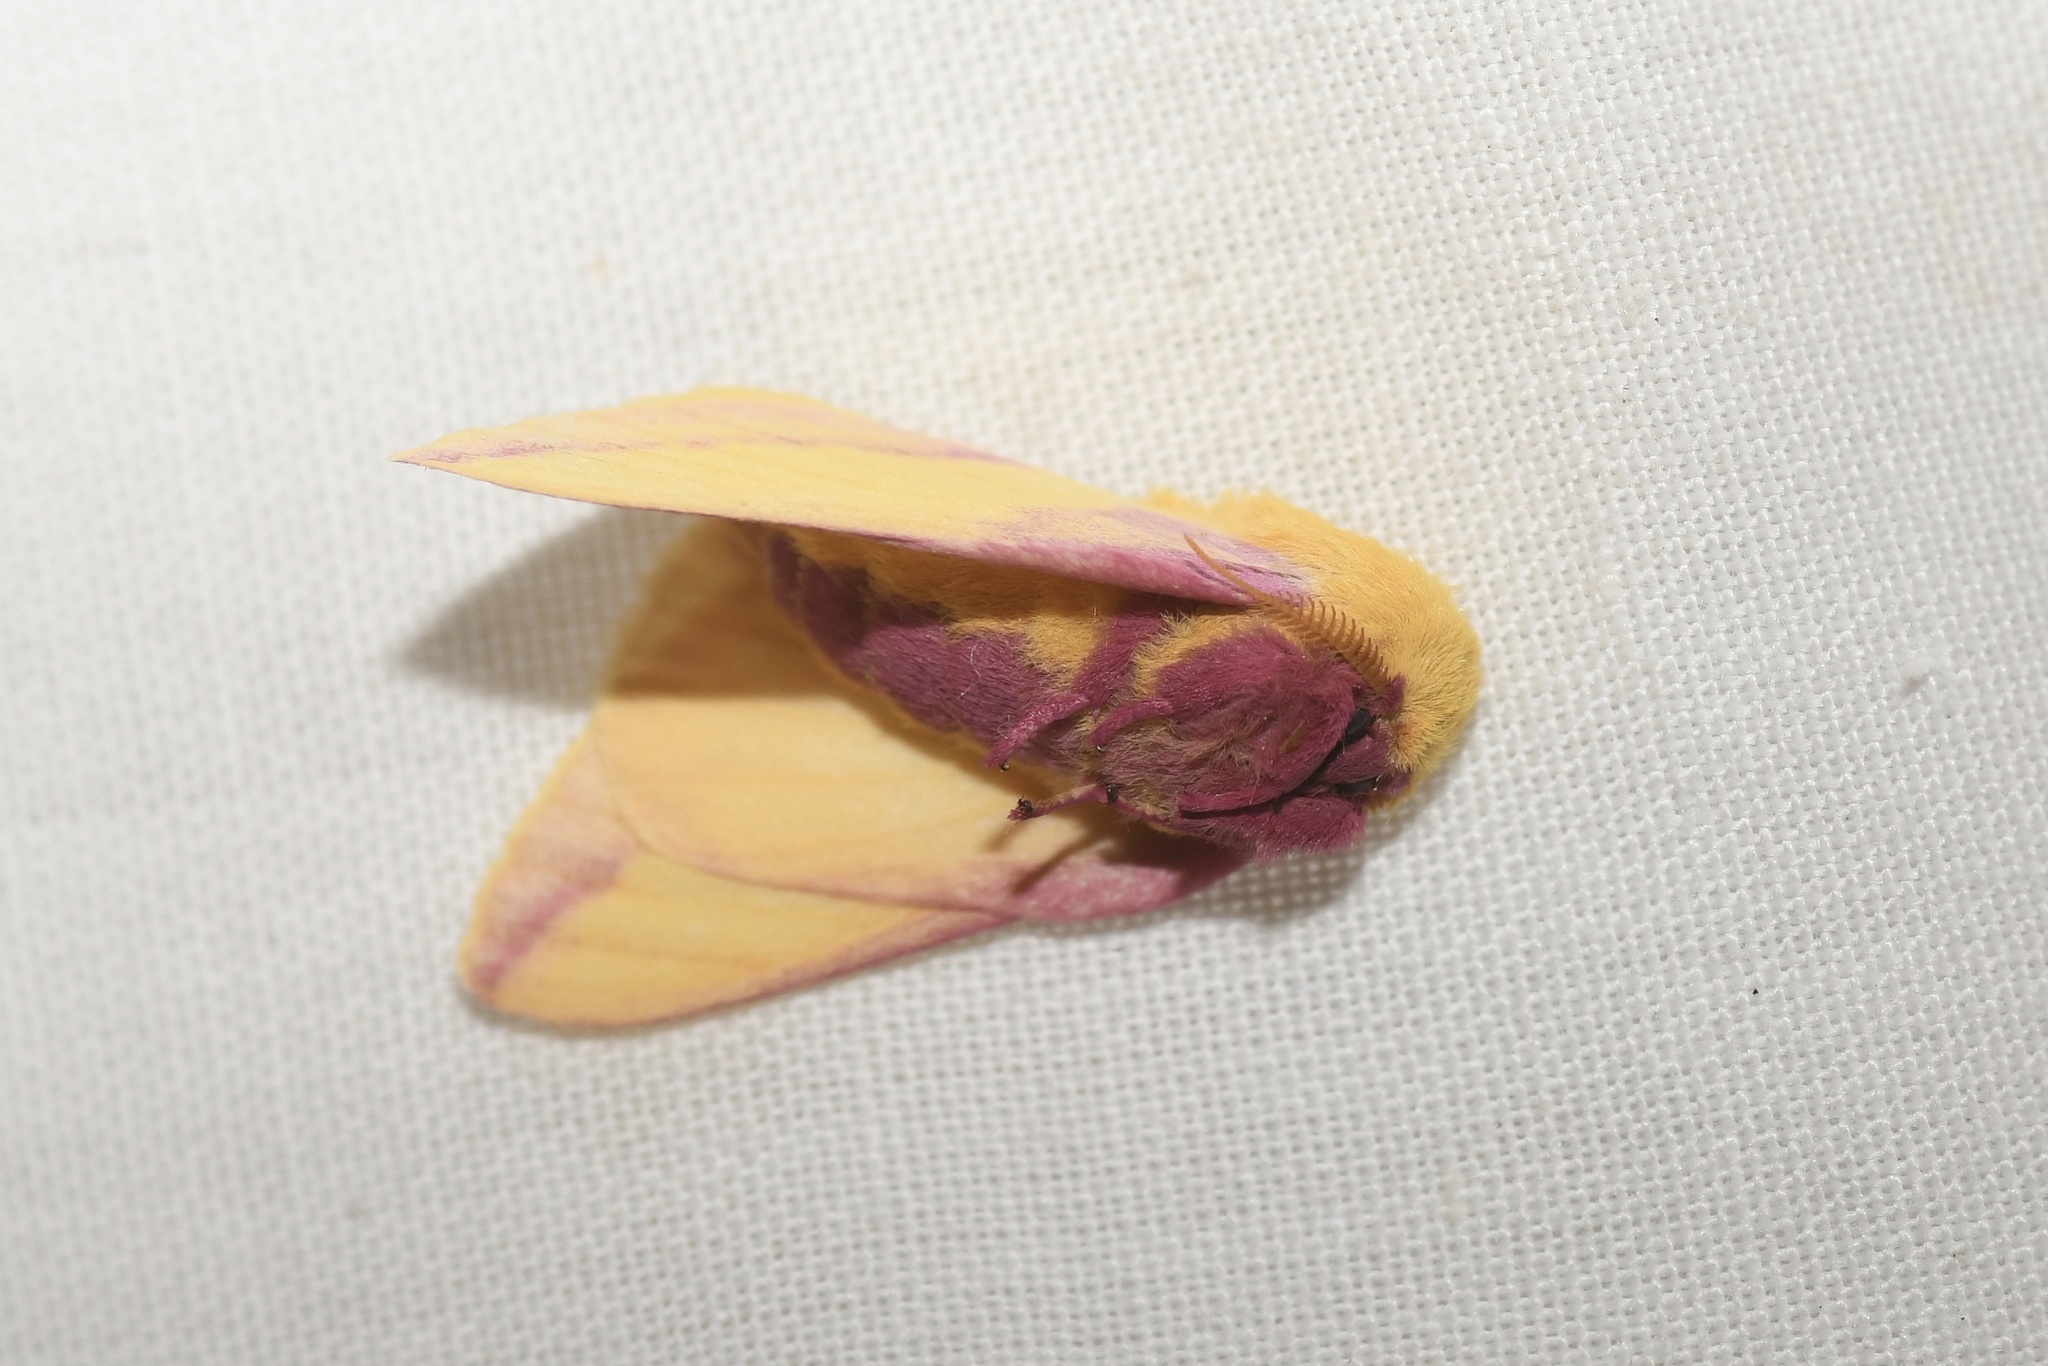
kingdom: Animalia
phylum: Arthropoda
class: Insecta
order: Lepidoptera
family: Saturniidae
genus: Dryocampa
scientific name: Dryocampa rubicunda
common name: Rosy maple moth
